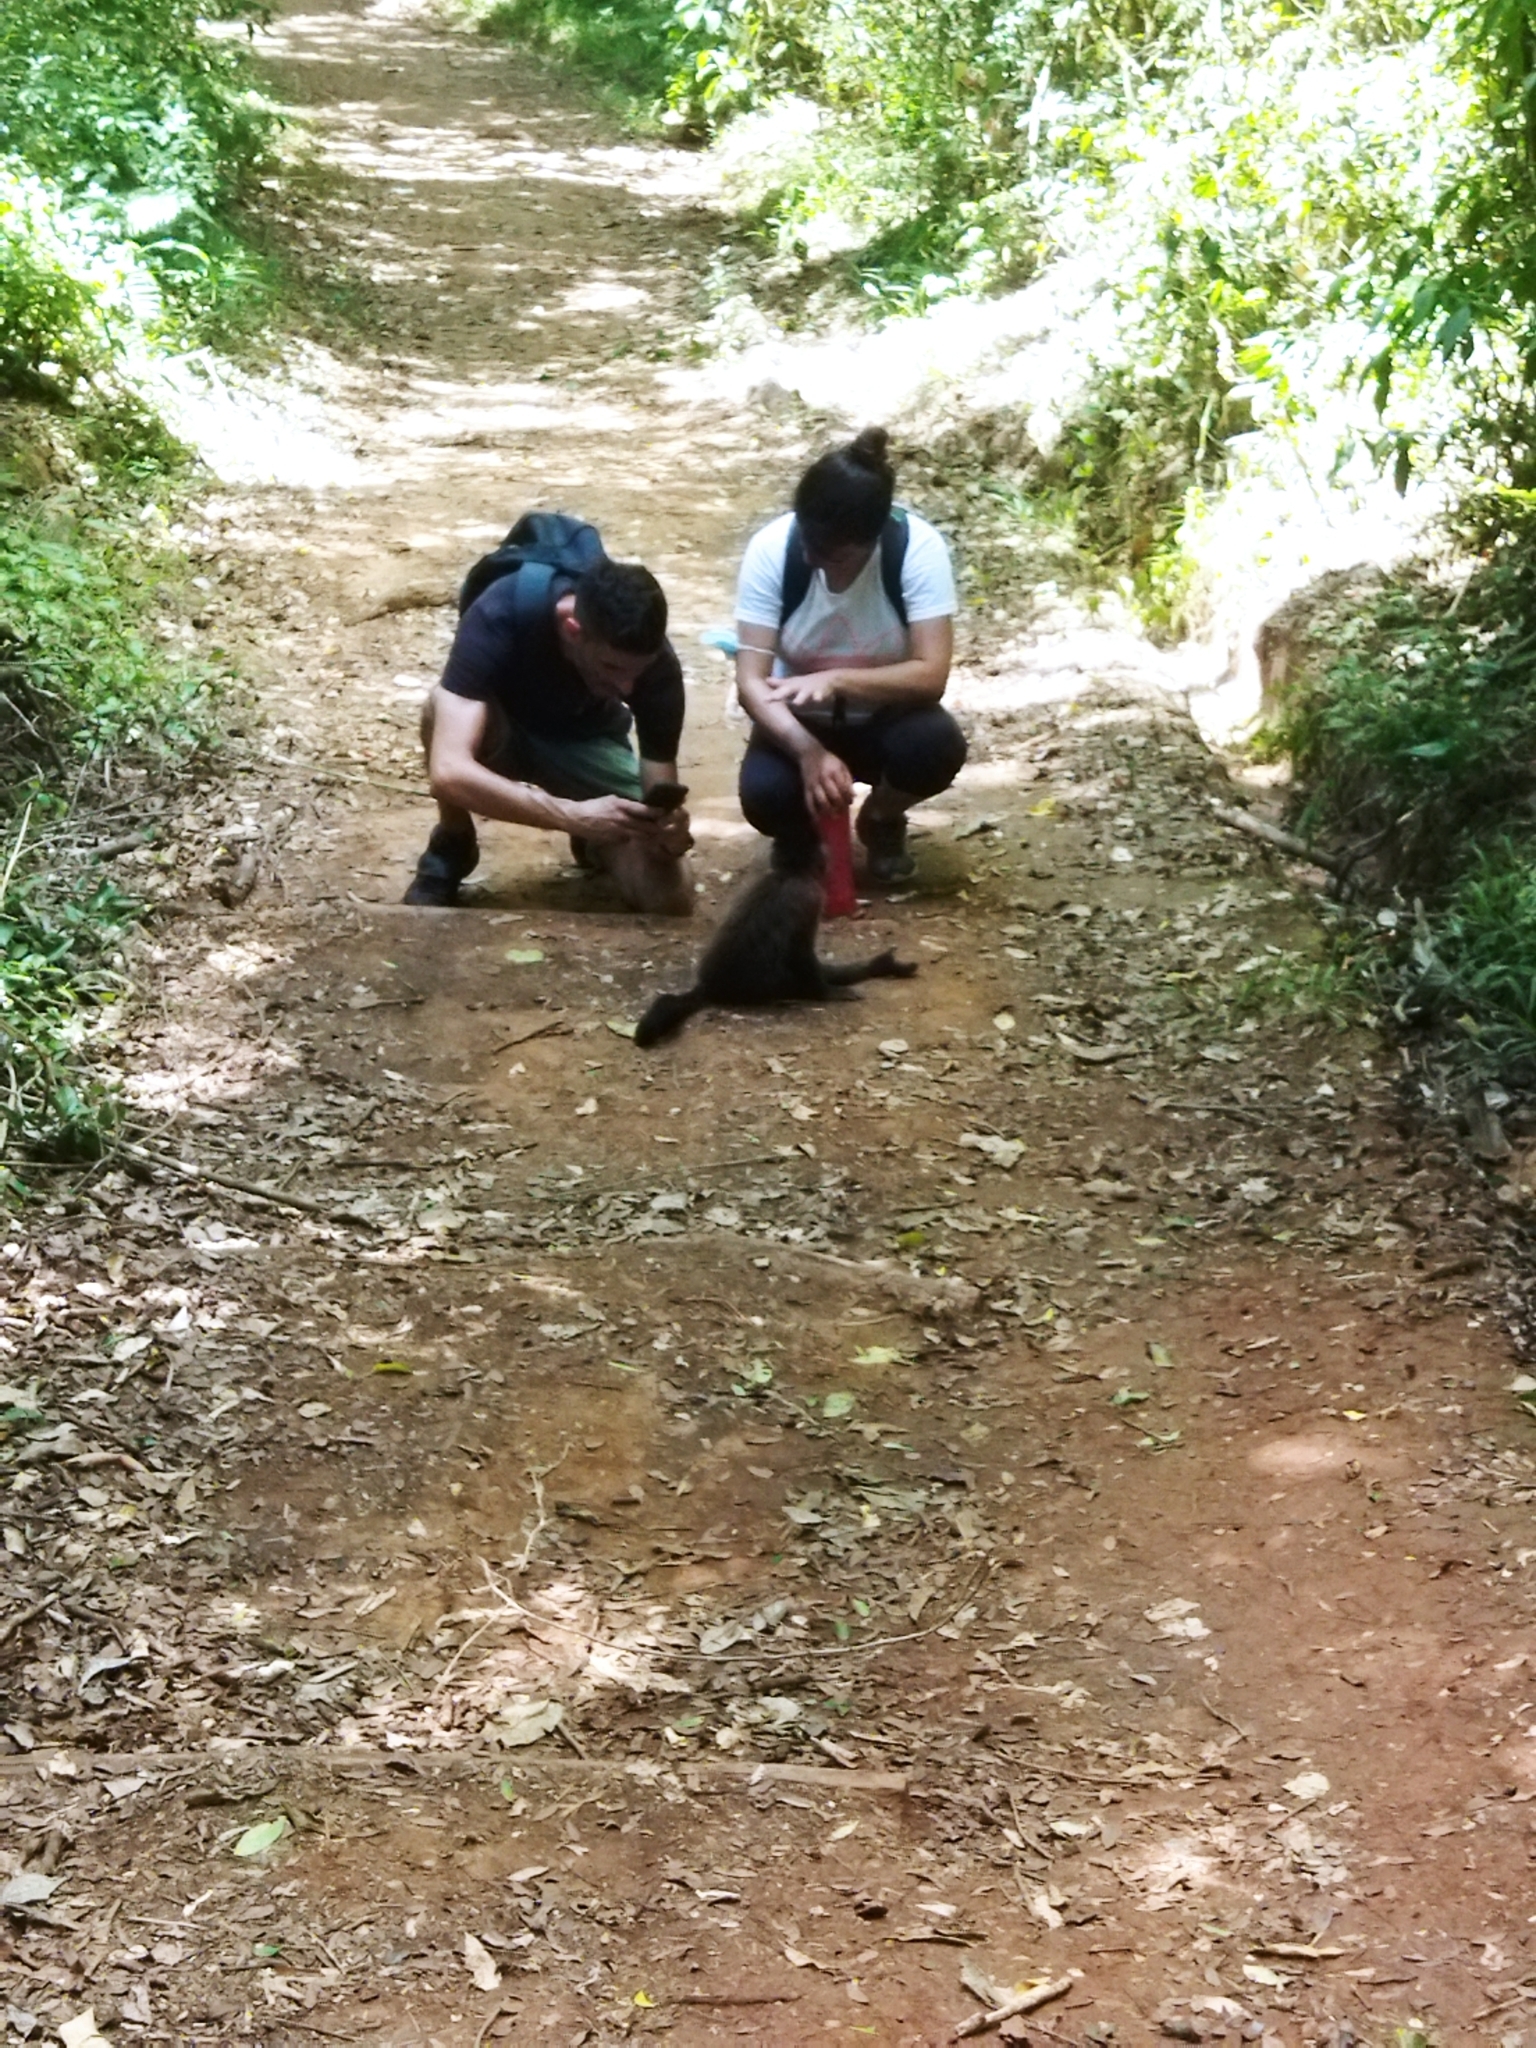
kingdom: Animalia
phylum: Chordata
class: Mammalia
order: Primates
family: Cebidae
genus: Sapajus
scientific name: Sapajus nigritus
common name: Black capuchin
